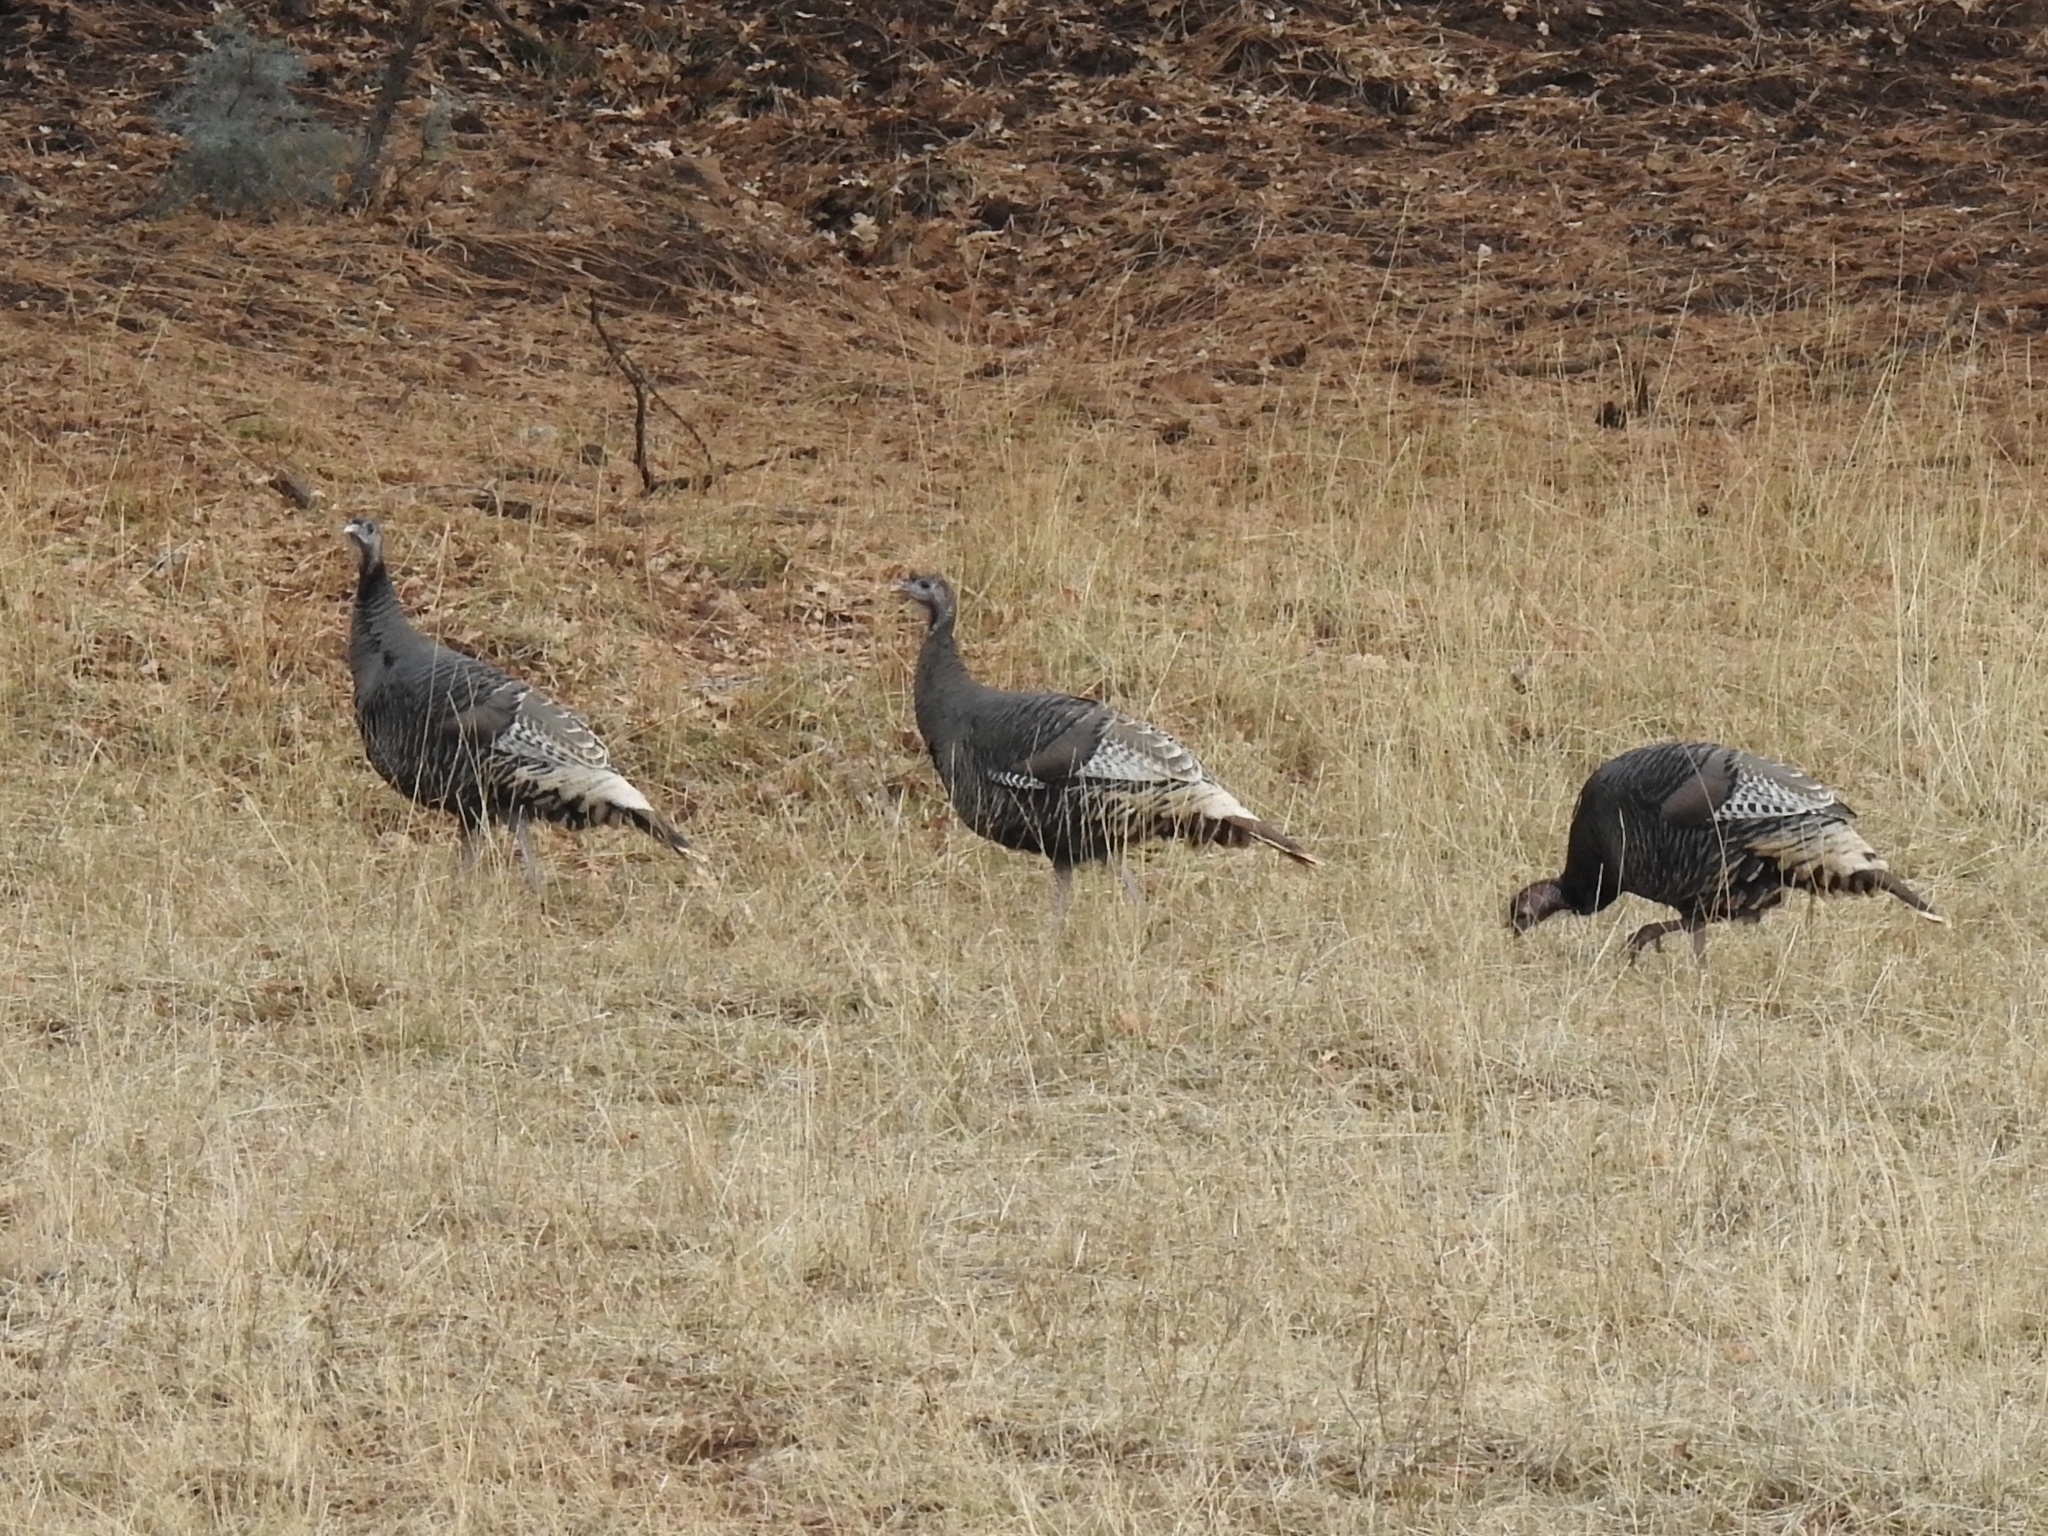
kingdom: Animalia
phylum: Chordata
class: Aves
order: Galliformes
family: Phasianidae
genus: Meleagris
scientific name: Meleagris gallopavo
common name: Wild turkey
